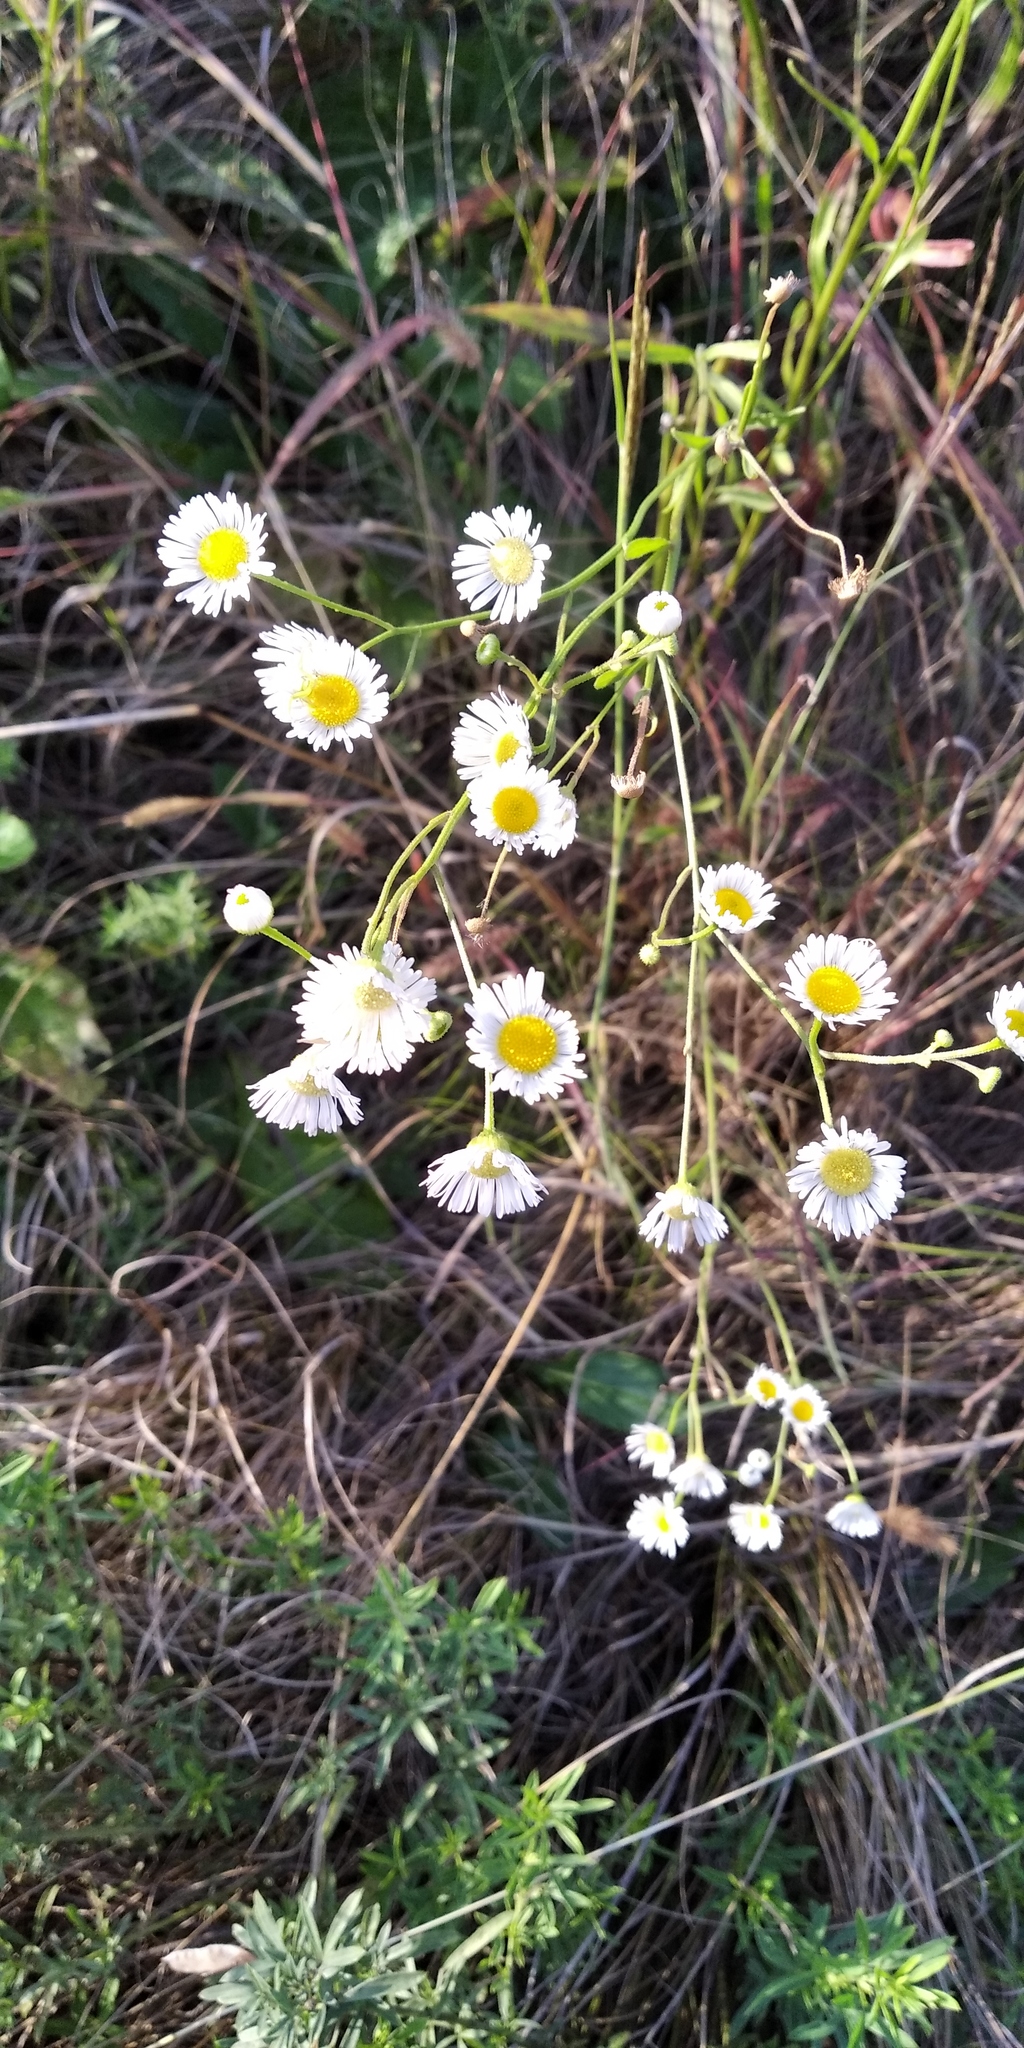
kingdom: Plantae
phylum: Tracheophyta
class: Magnoliopsida
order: Asterales
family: Asteraceae
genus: Erigeron
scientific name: Erigeron annuus
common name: Tall fleabane
